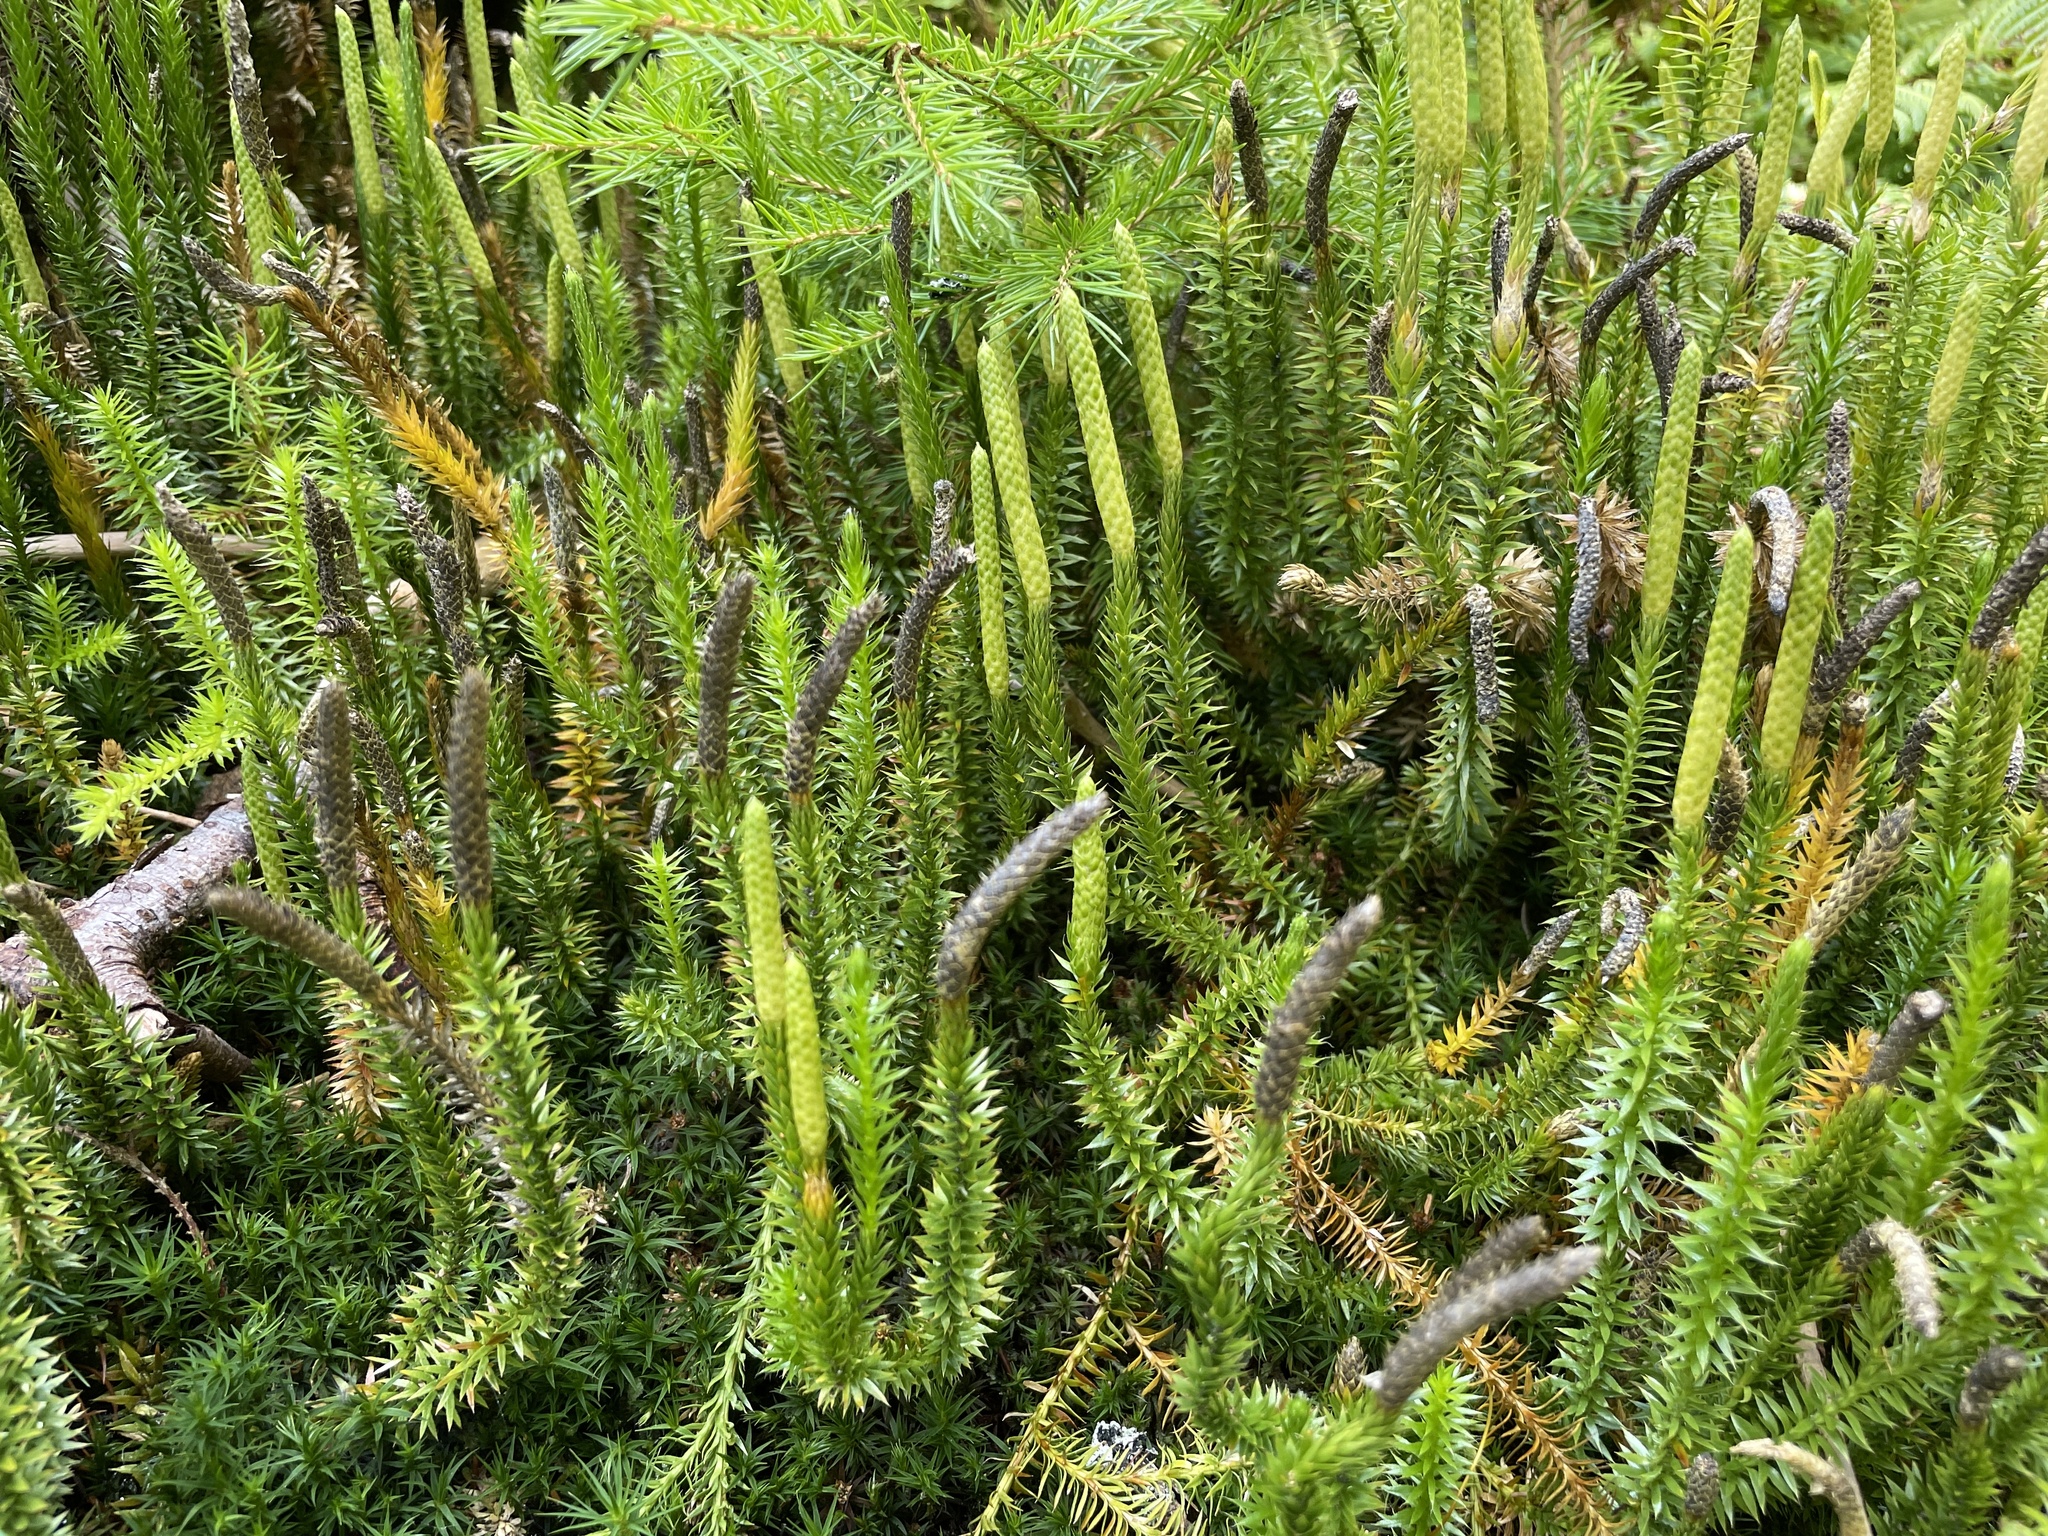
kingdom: Plantae
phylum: Tracheophyta
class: Lycopodiopsida
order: Lycopodiales
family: Lycopodiaceae
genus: Spinulum
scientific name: Spinulum annotinum
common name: Interrupted club-moss
